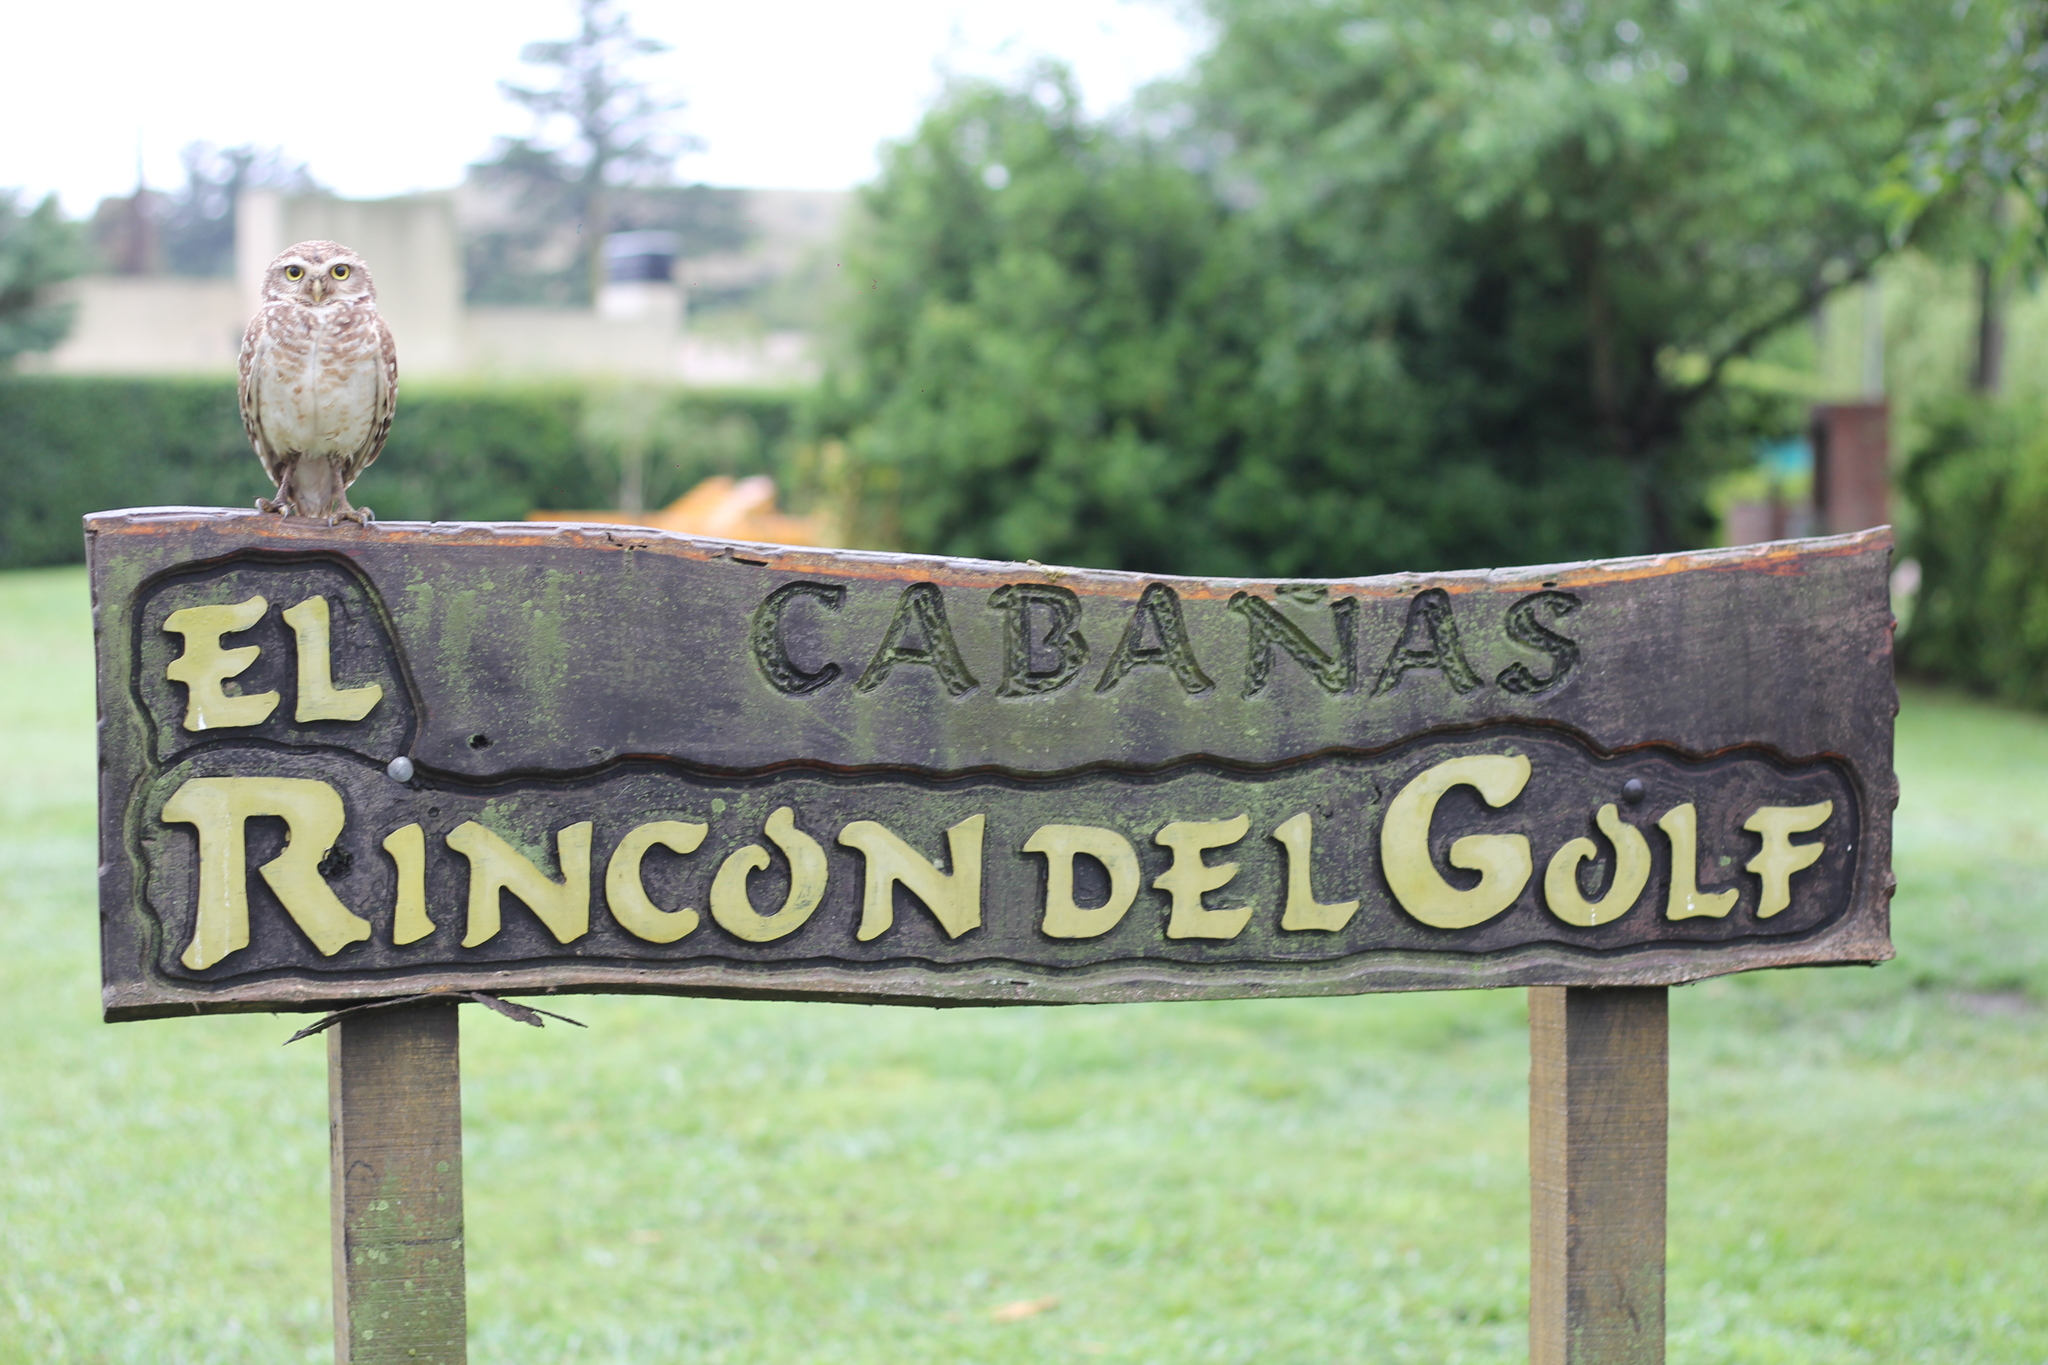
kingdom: Animalia
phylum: Chordata
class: Aves
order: Strigiformes
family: Strigidae
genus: Athene
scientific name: Athene cunicularia
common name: Burrowing owl
